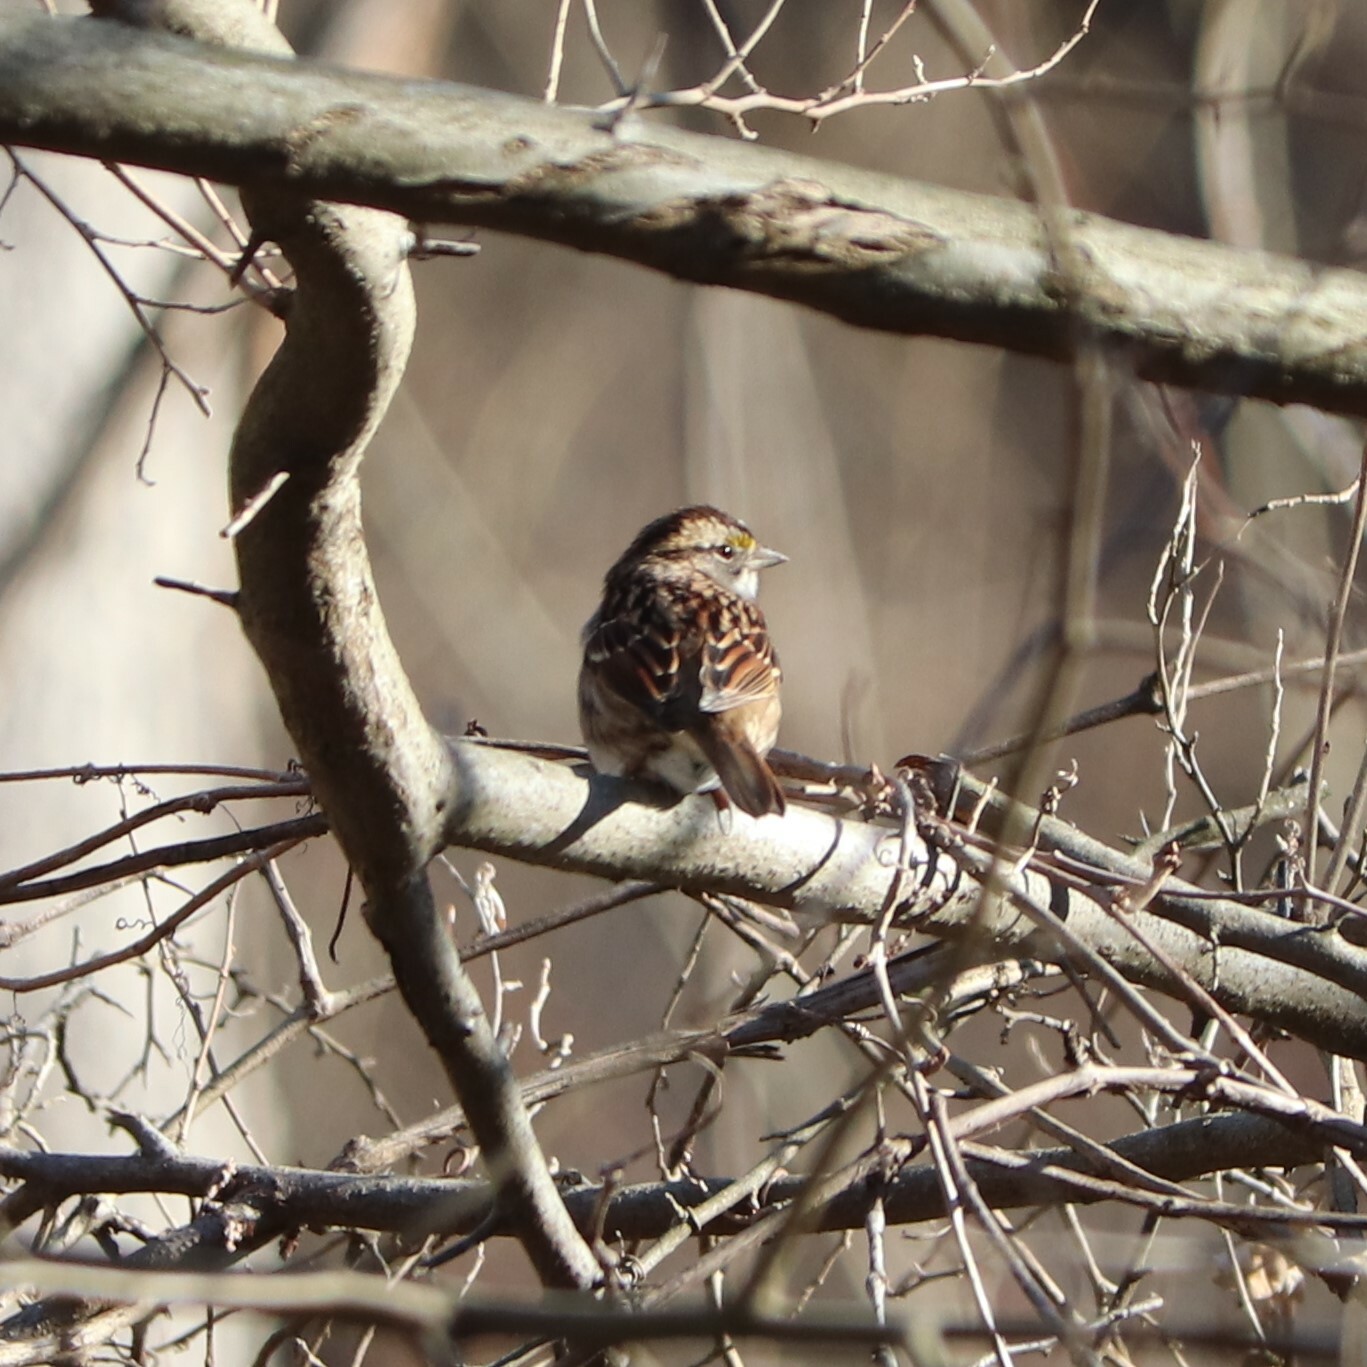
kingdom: Animalia
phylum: Chordata
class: Aves
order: Passeriformes
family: Passerellidae
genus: Zonotrichia
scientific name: Zonotrichia albicollis
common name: White-throated sparrow
